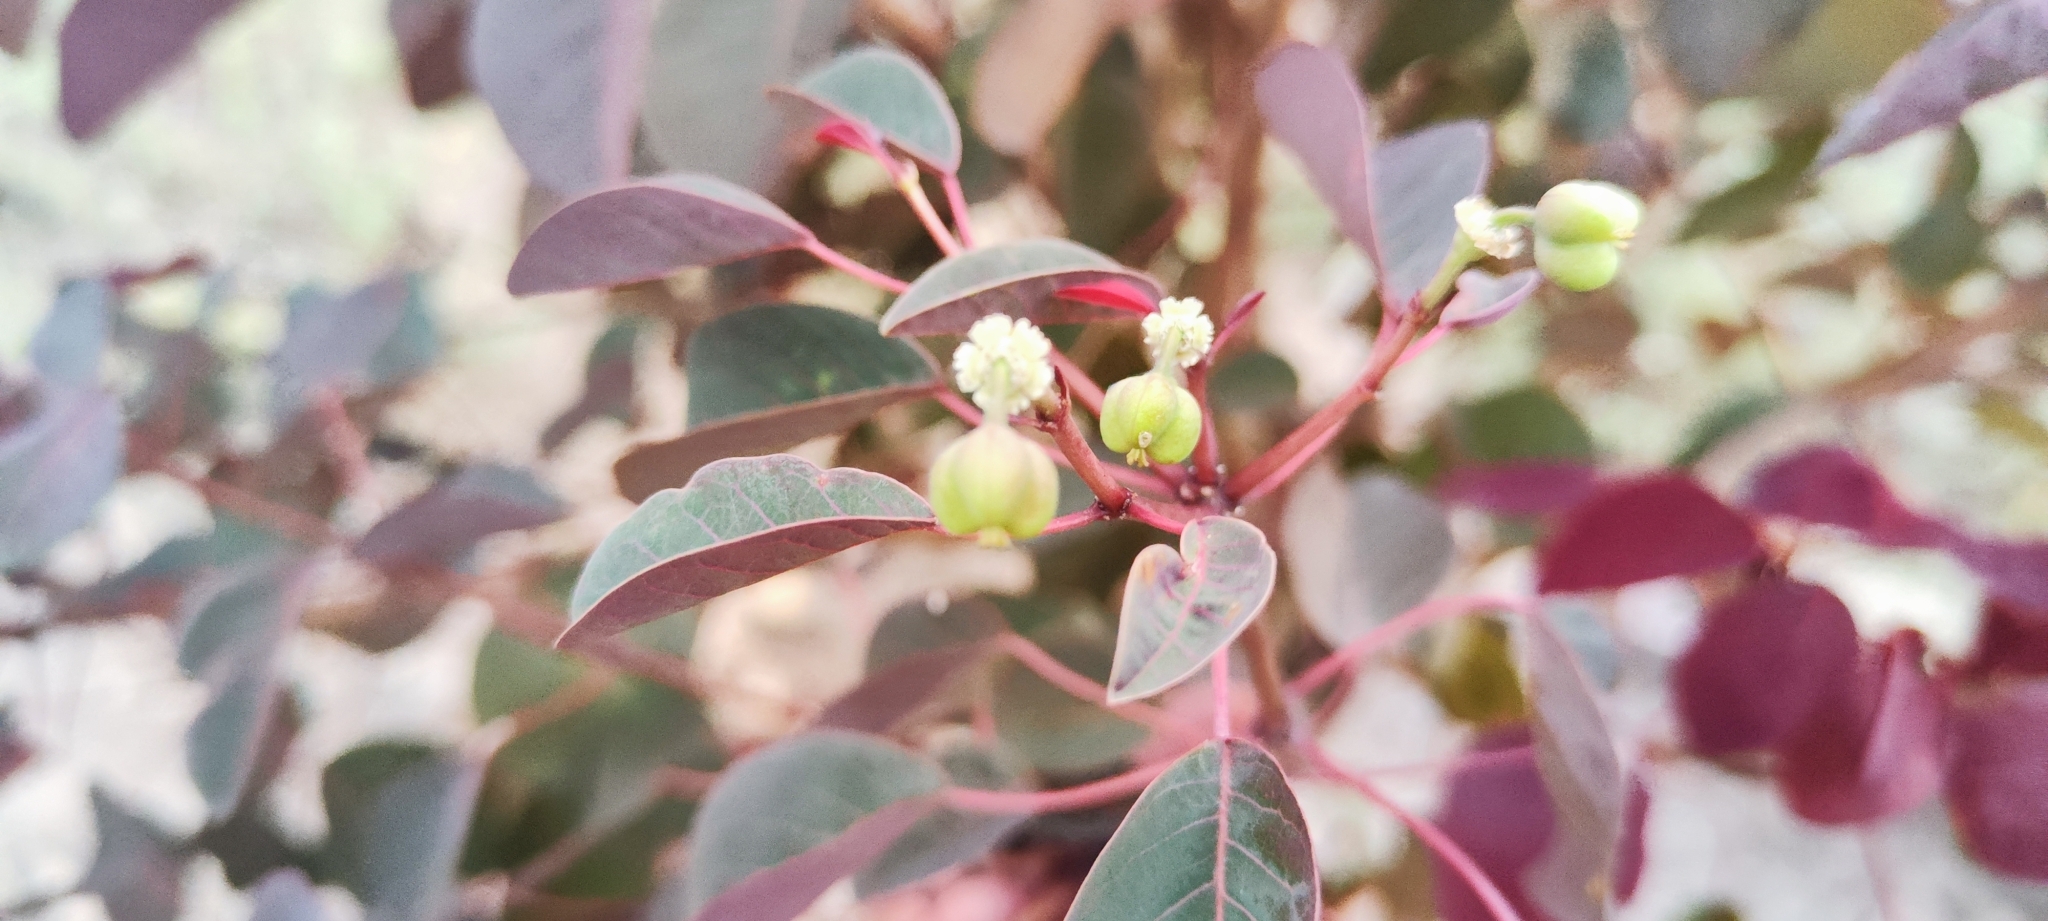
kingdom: Plantae
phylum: Tracheophyta
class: Magnoliopsida
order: Malpighiales
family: Euphorbiaceae
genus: Euphorbia
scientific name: Euphorbia cotinifolia
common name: Tropical smokebush
